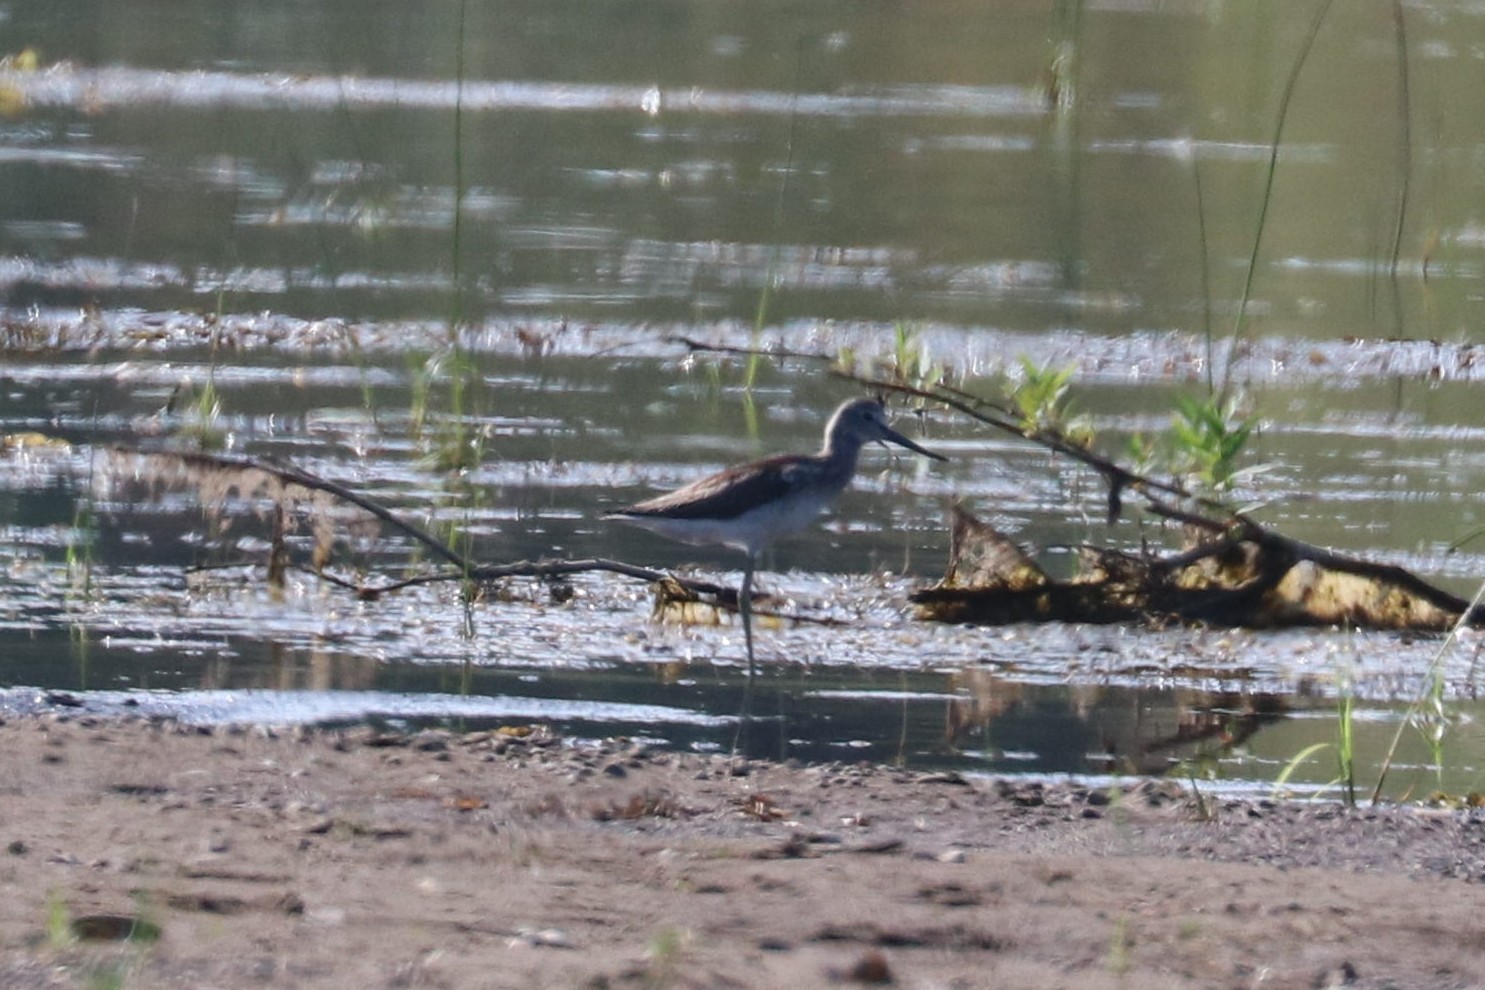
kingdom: Animalia
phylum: Chordata
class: Aves
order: Charadriiformes
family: Scolopacidae
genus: Tringa
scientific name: Tringa nebularia
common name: Common greenshank
